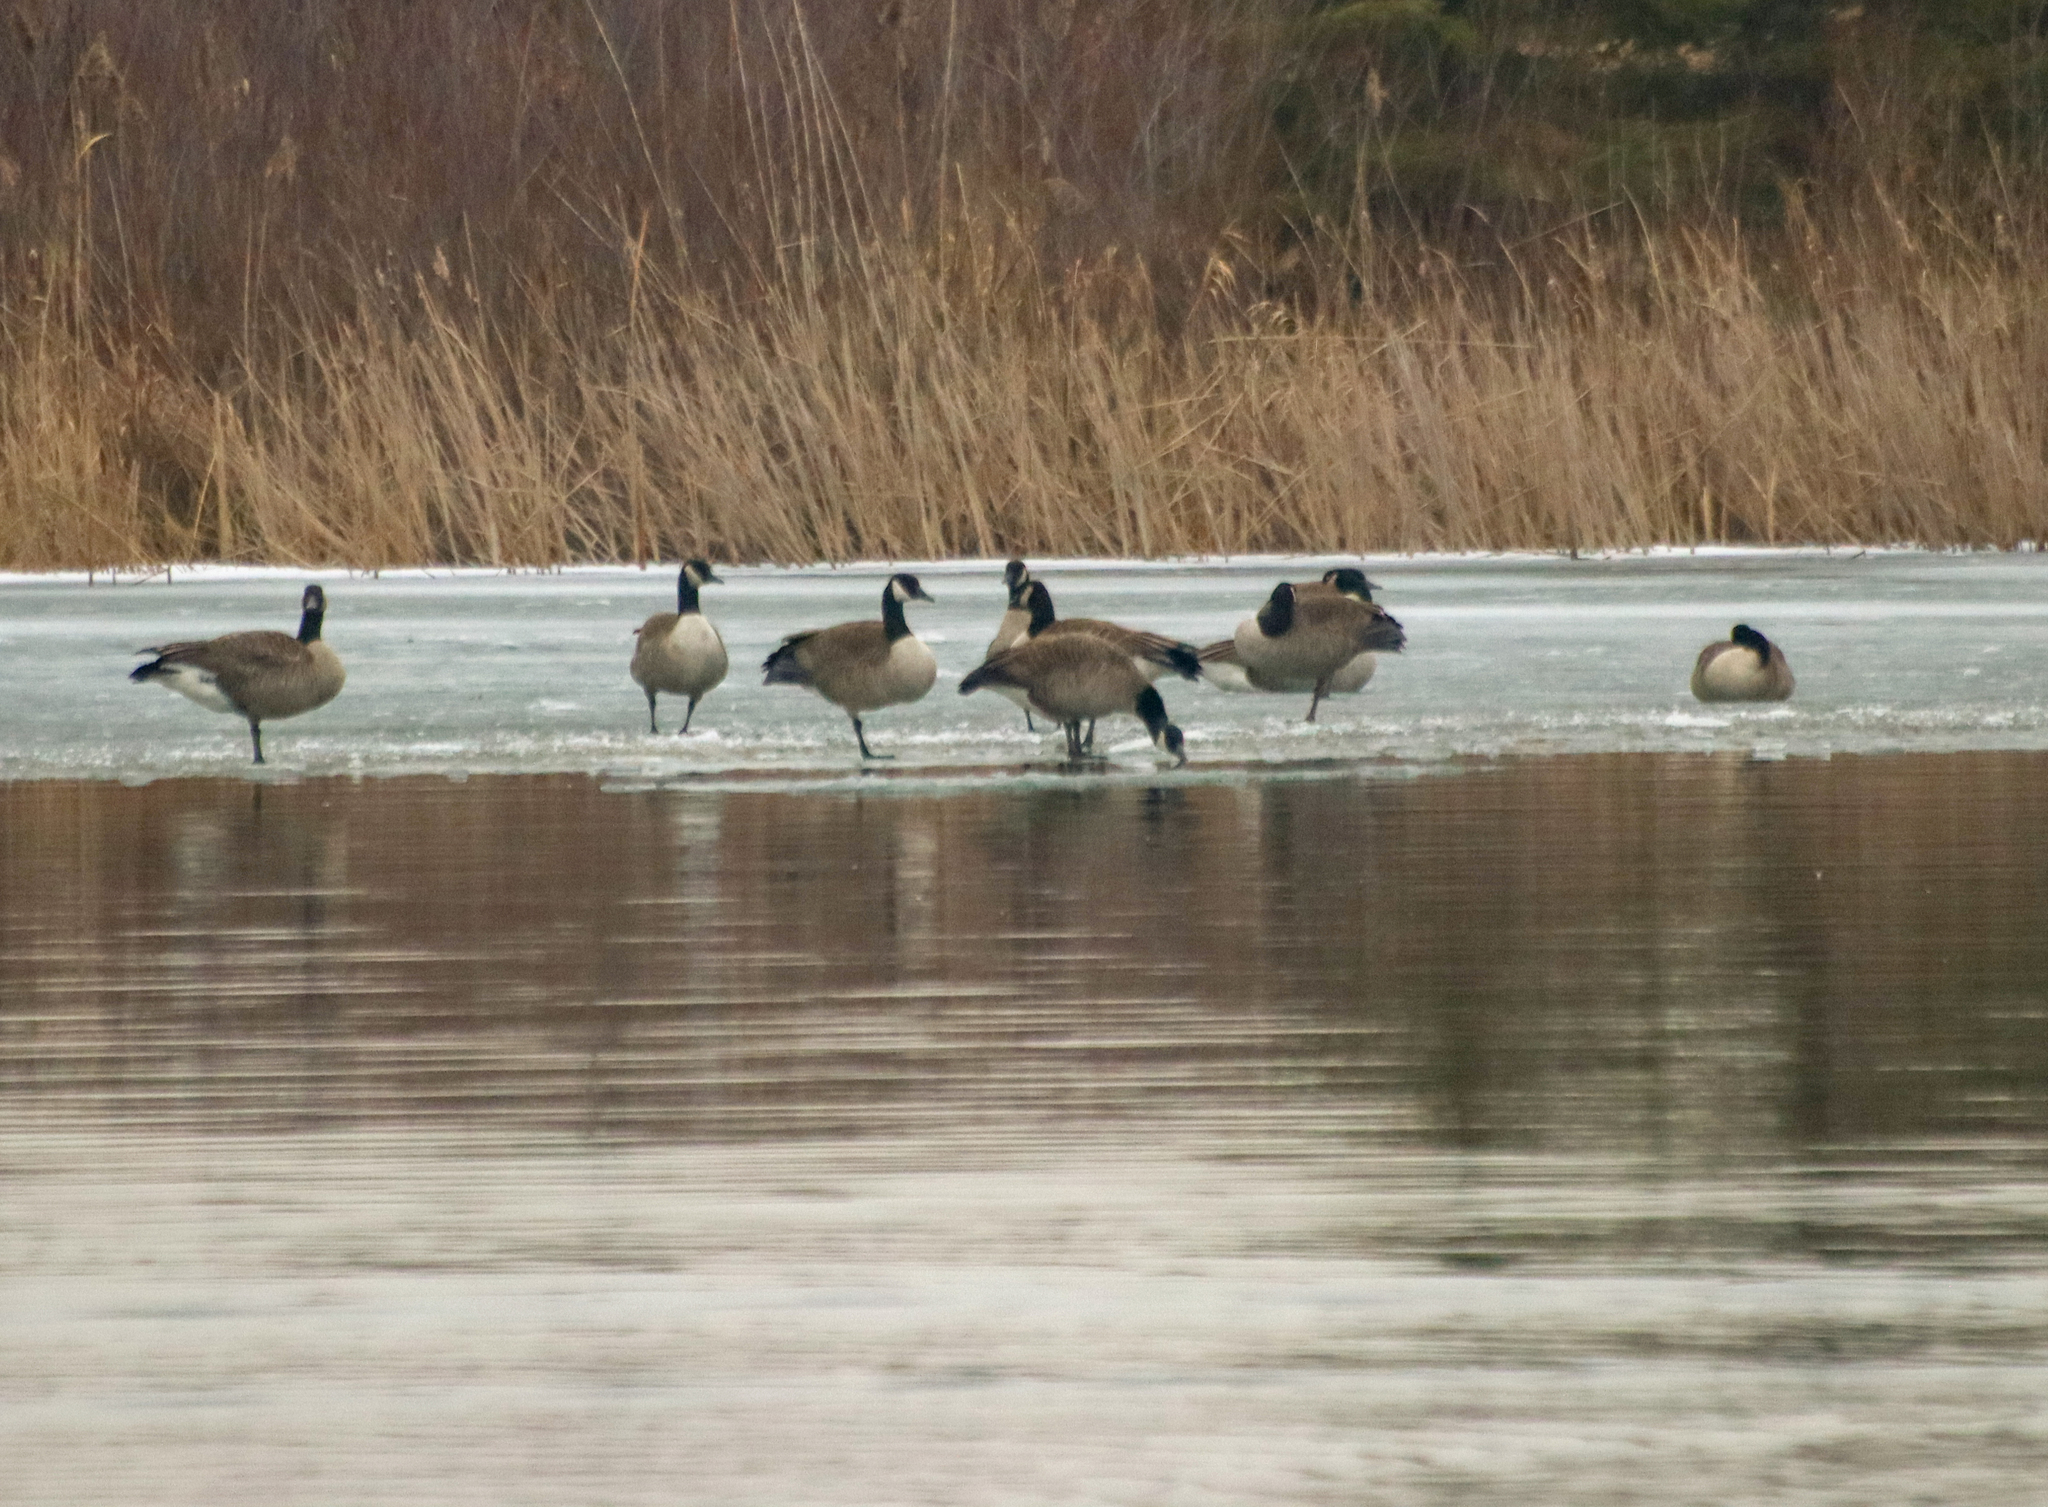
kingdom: Animalia
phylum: Chordata
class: Aves
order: Anseriformes
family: Anatidae
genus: Branta
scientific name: Branta canadensis
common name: Canada goose
